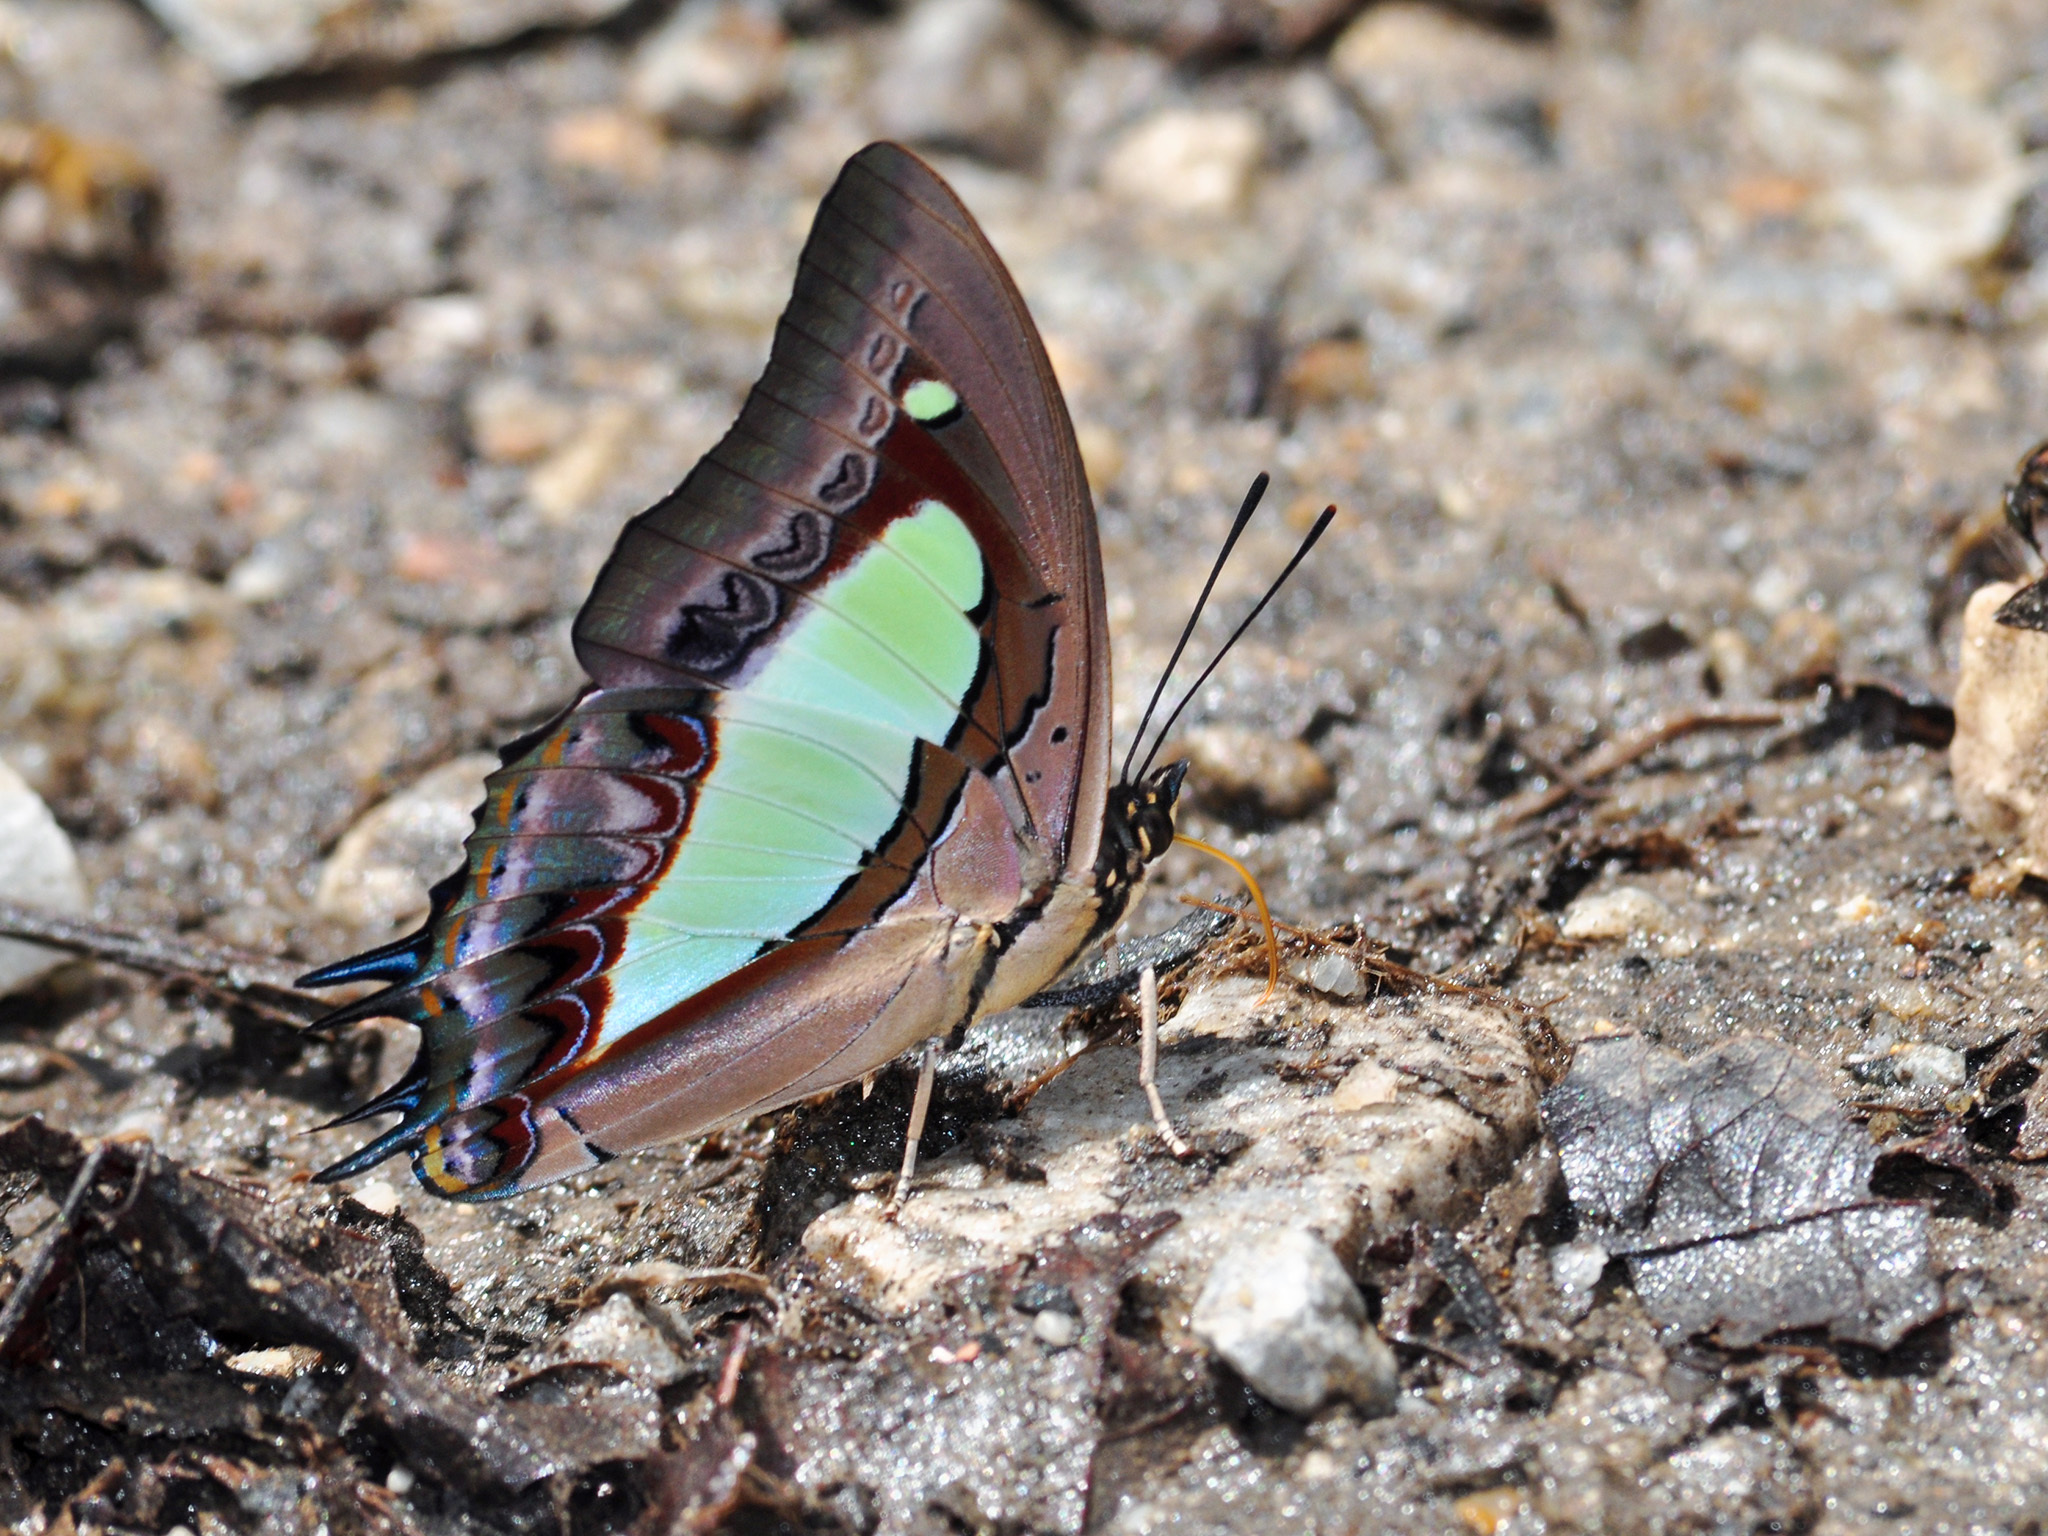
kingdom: Animalia
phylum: Arthropoda
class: Insecta
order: Lepidoptera
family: Nymphalidae
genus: Polyura
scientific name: Polyura athamas
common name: Common nawab
